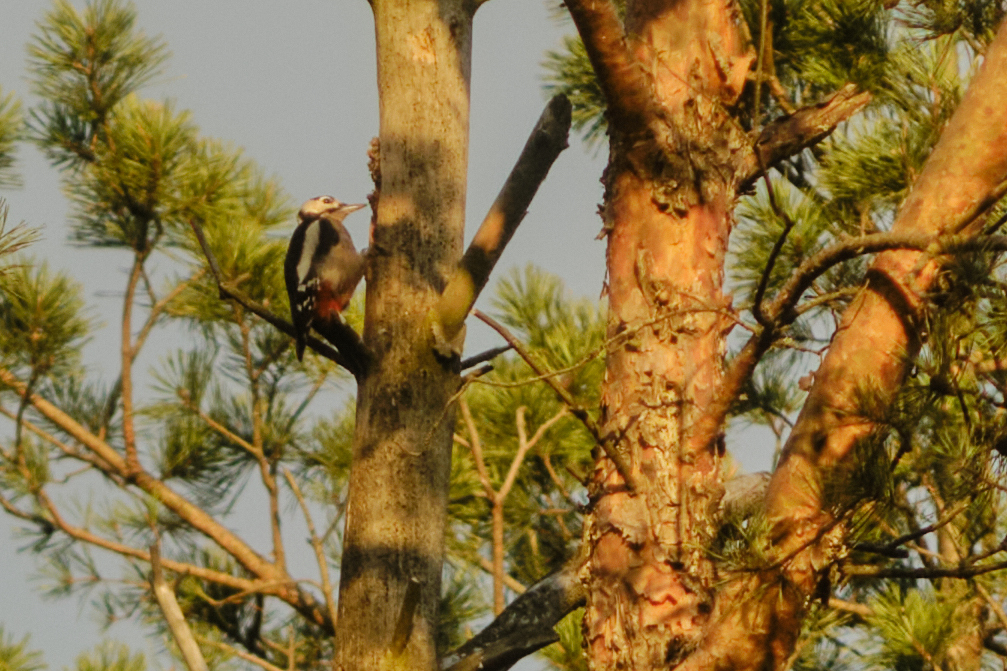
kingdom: Animalia
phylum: Chordata
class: Aves
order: Piciformes
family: Picidae
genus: Dendrocopos
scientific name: Dendrocopos major
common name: Great spotted woodpecker
